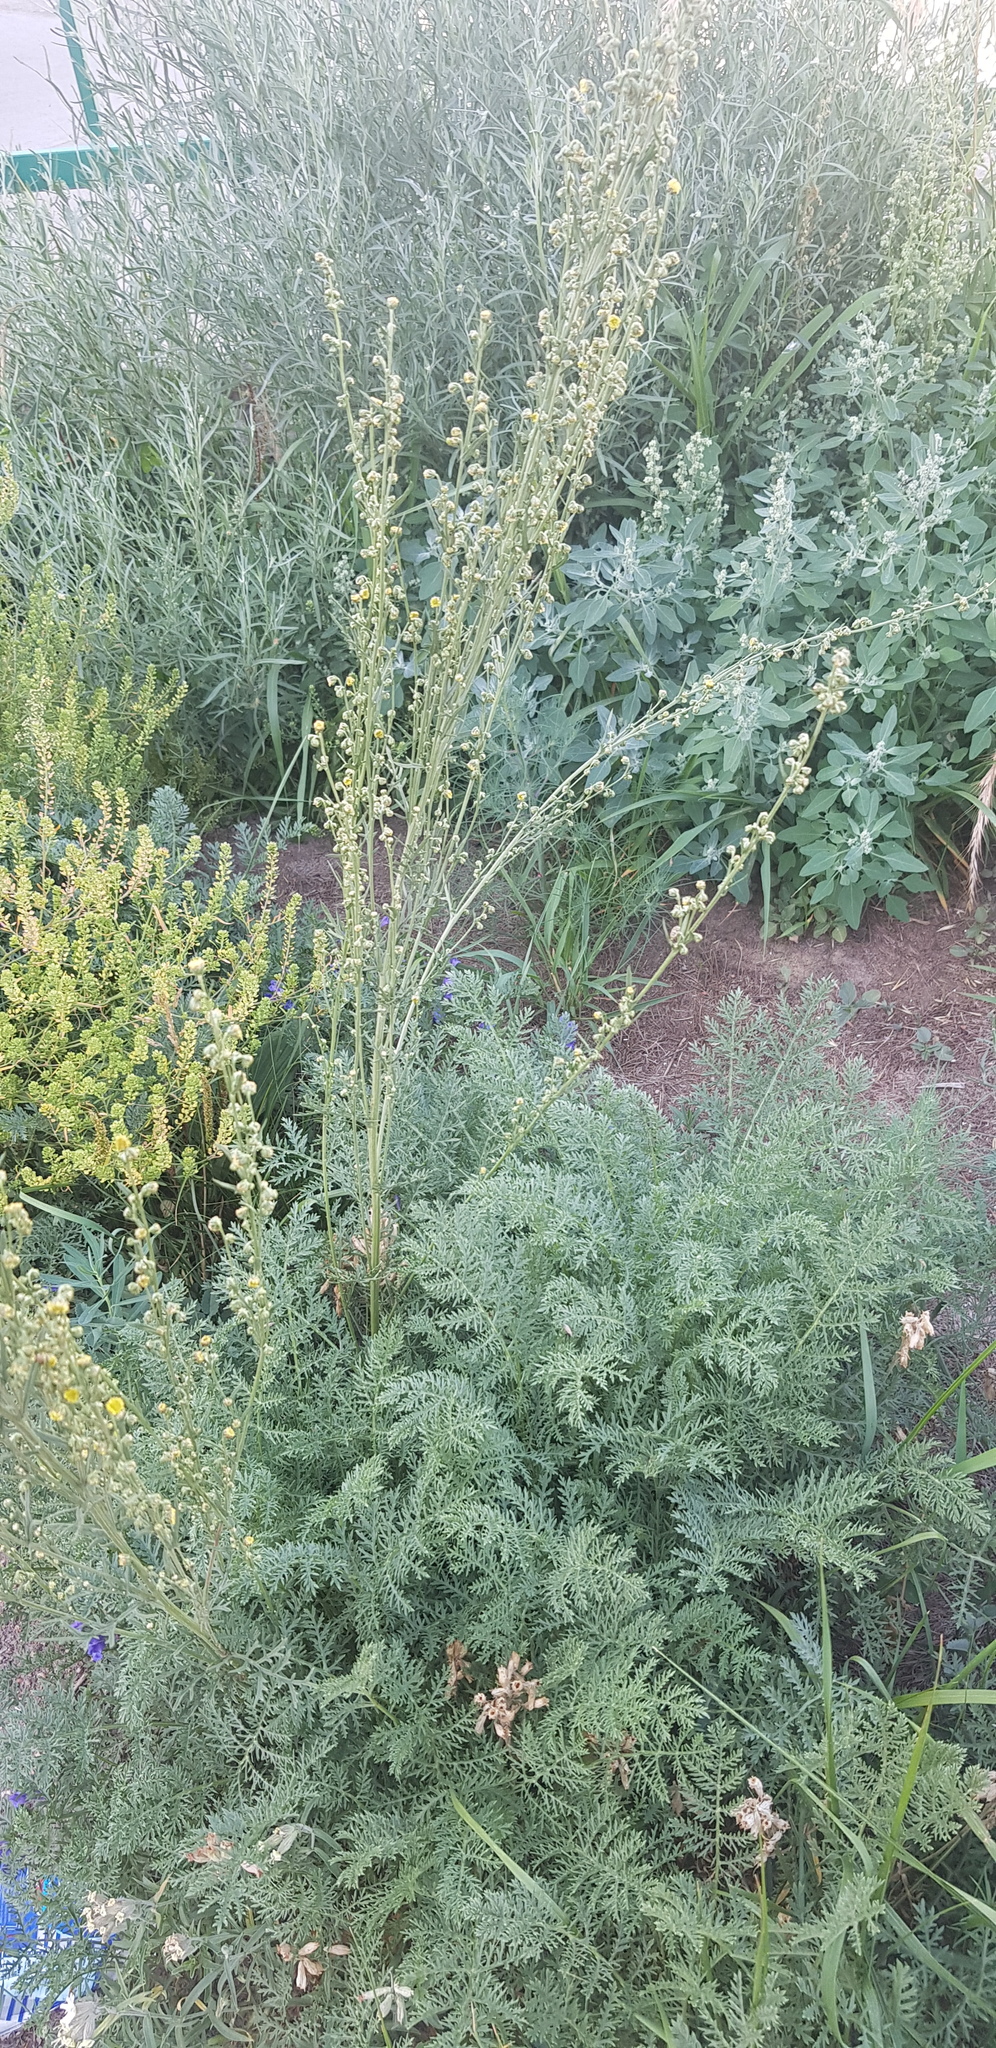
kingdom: Plantae
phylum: Tracheophyta
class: Magnoliopsida
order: Asterales
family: Asteraceae
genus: Artemisia
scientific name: Artemisia gmelinii
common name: Gmelin's wormwood
